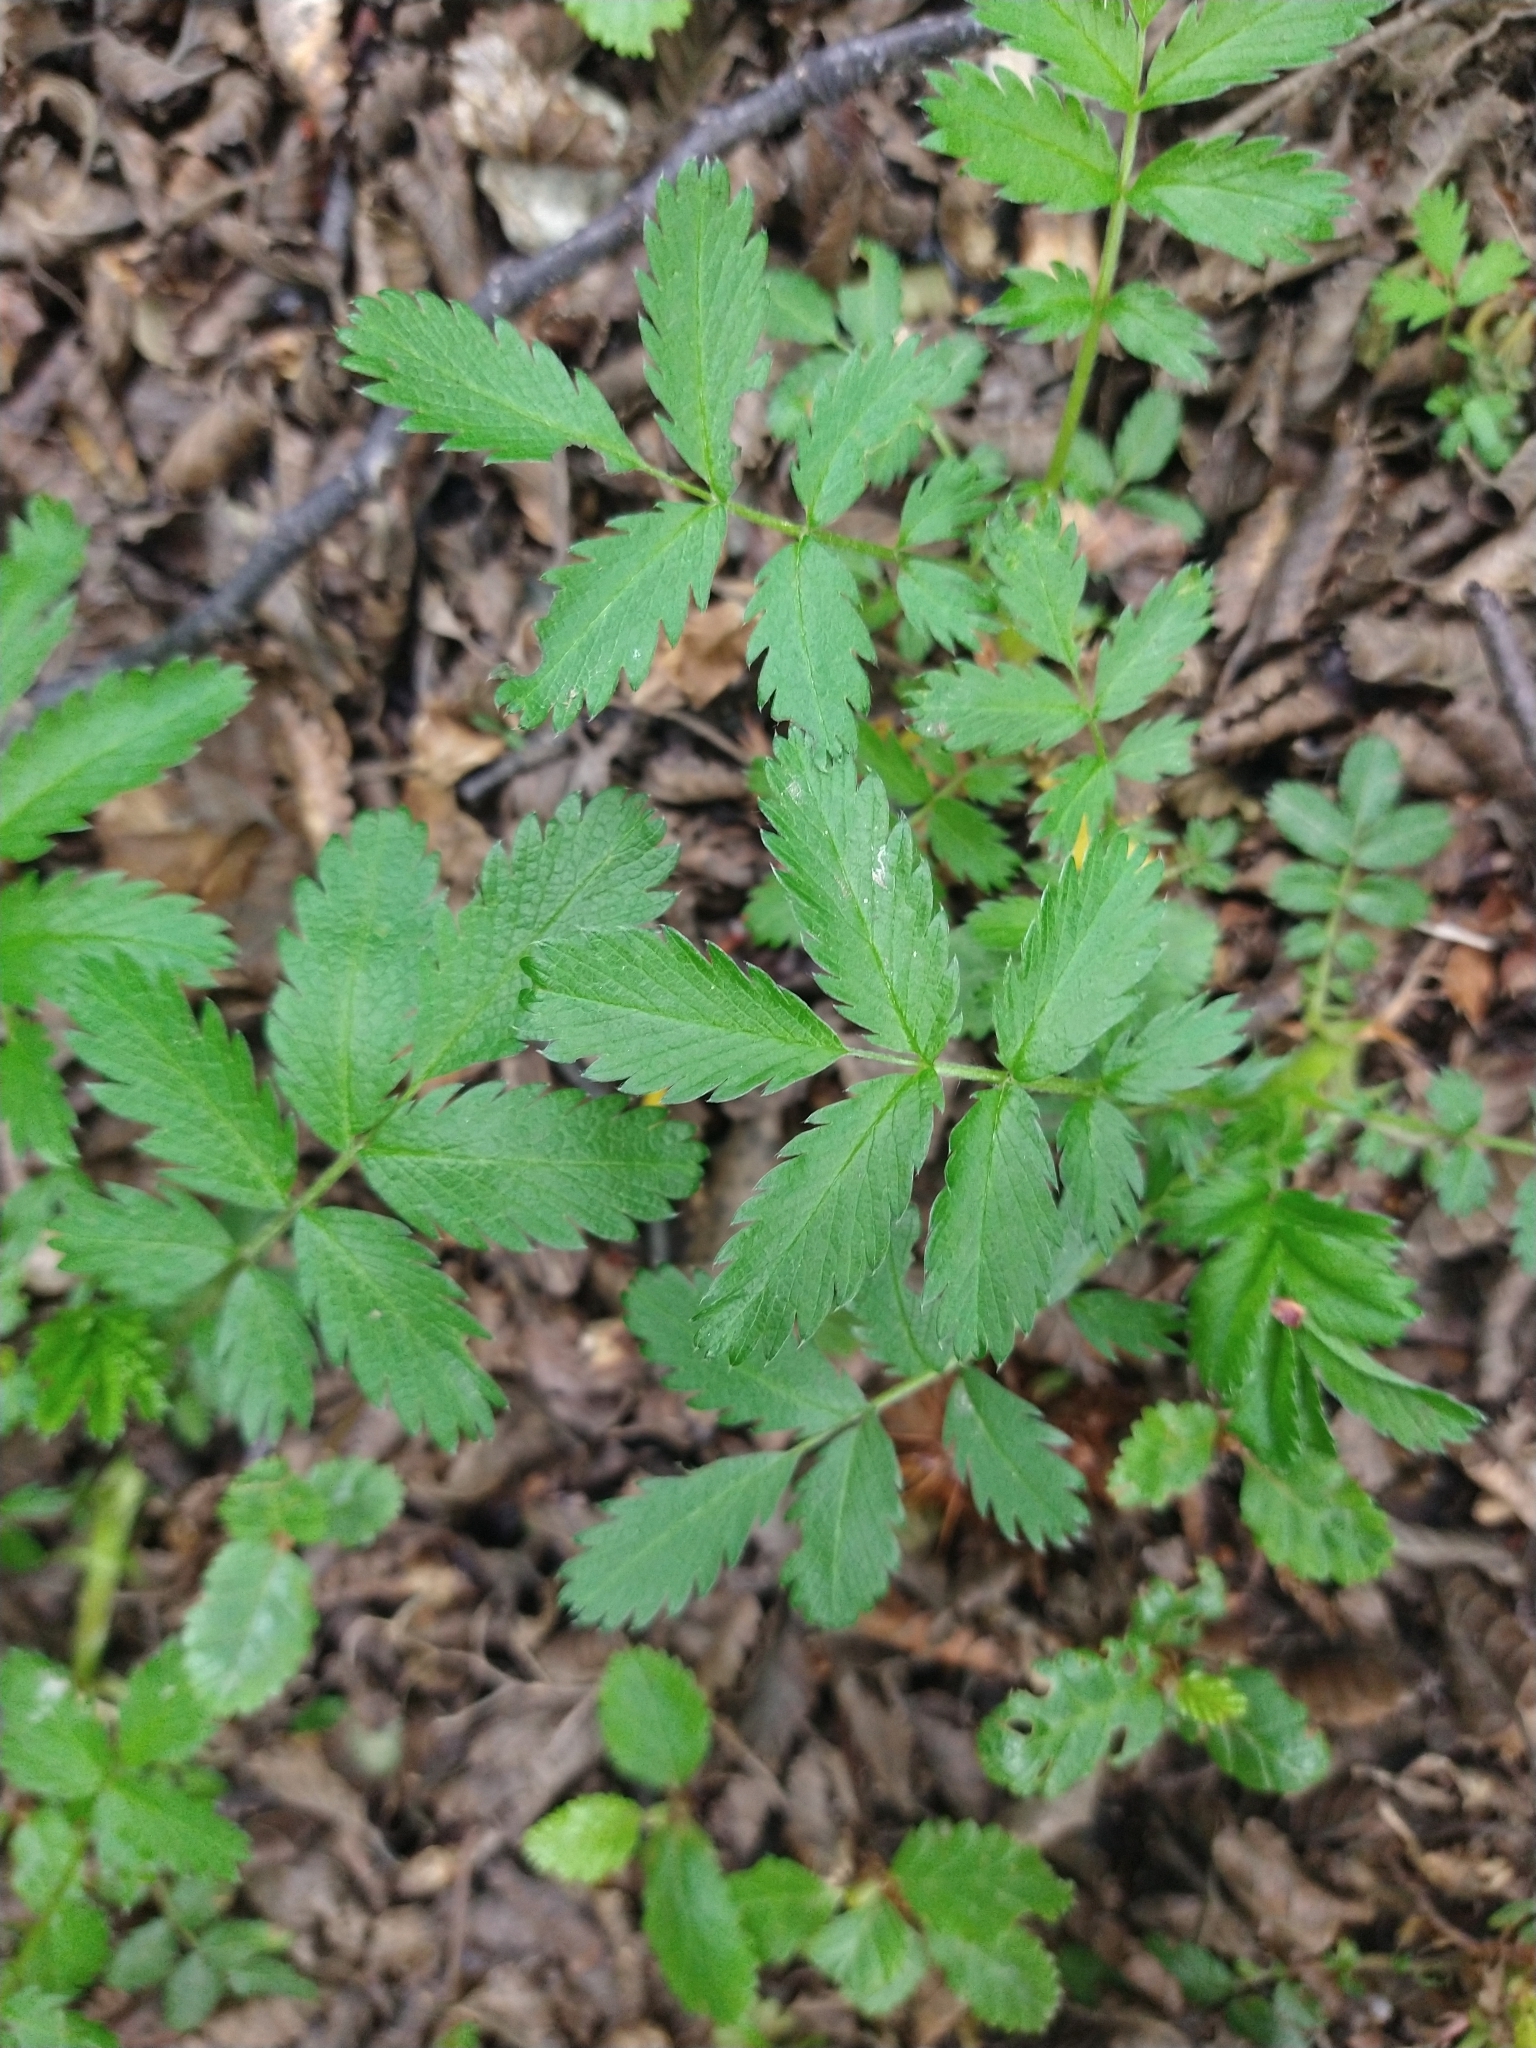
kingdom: Plantae
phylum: Tracheophyta
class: Magnoliopsida
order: Rosales
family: Rosaceae
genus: Acaena
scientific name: Acaena ovalifolia
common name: Two-spined acaena
